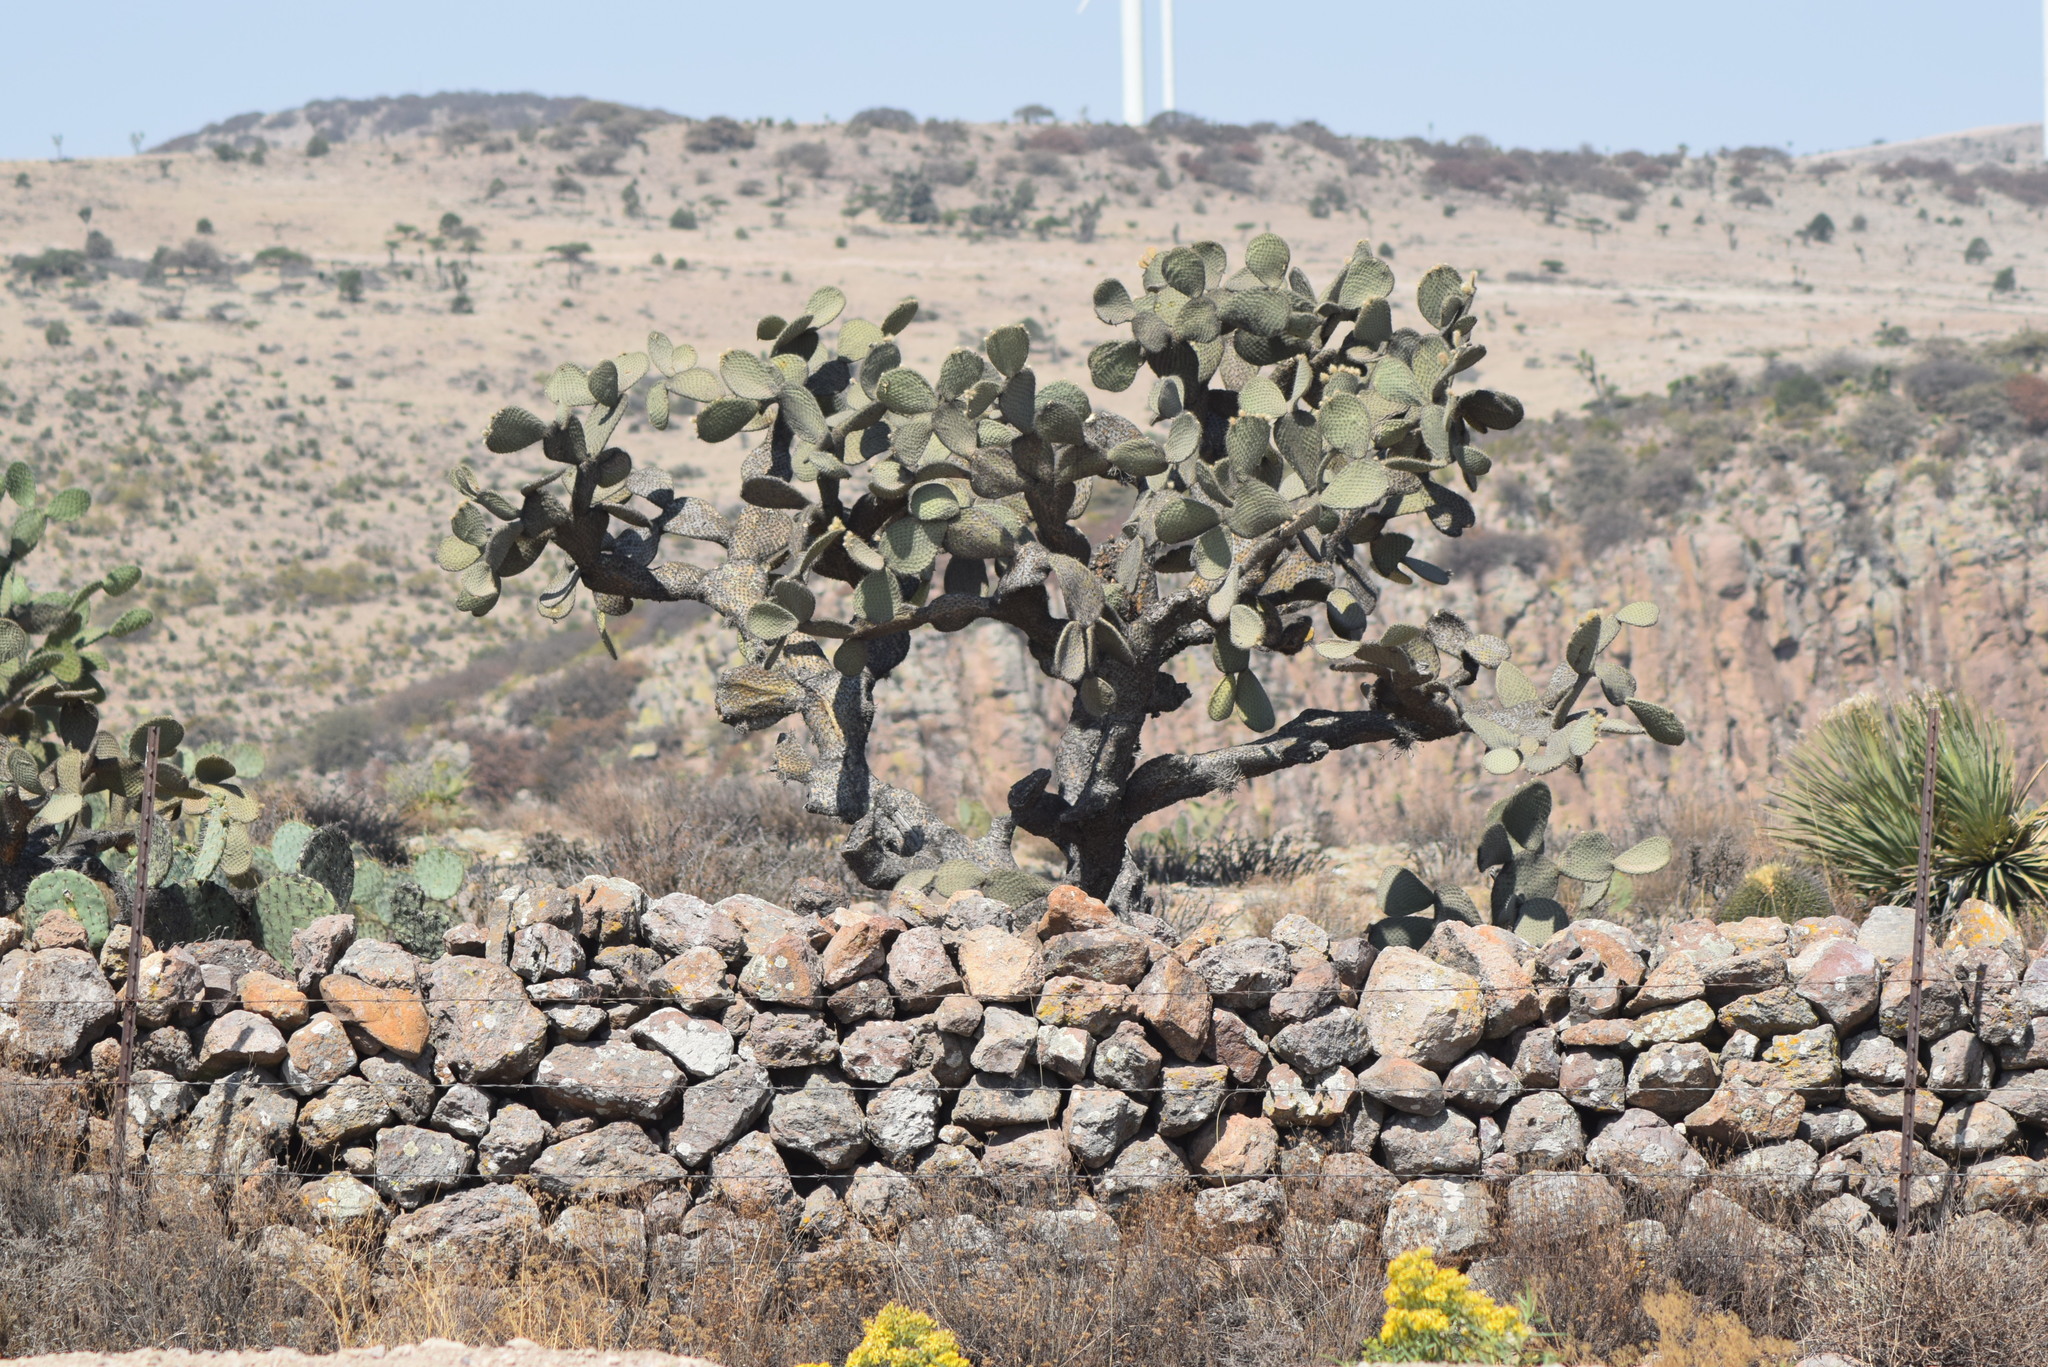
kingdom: Plantae
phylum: Tracheophyta
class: Magnoliopsida
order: Caryophyllales
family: Cactaceae
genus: Opuntia
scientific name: Opuntia leucotricha
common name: Arborescent pricklypear
